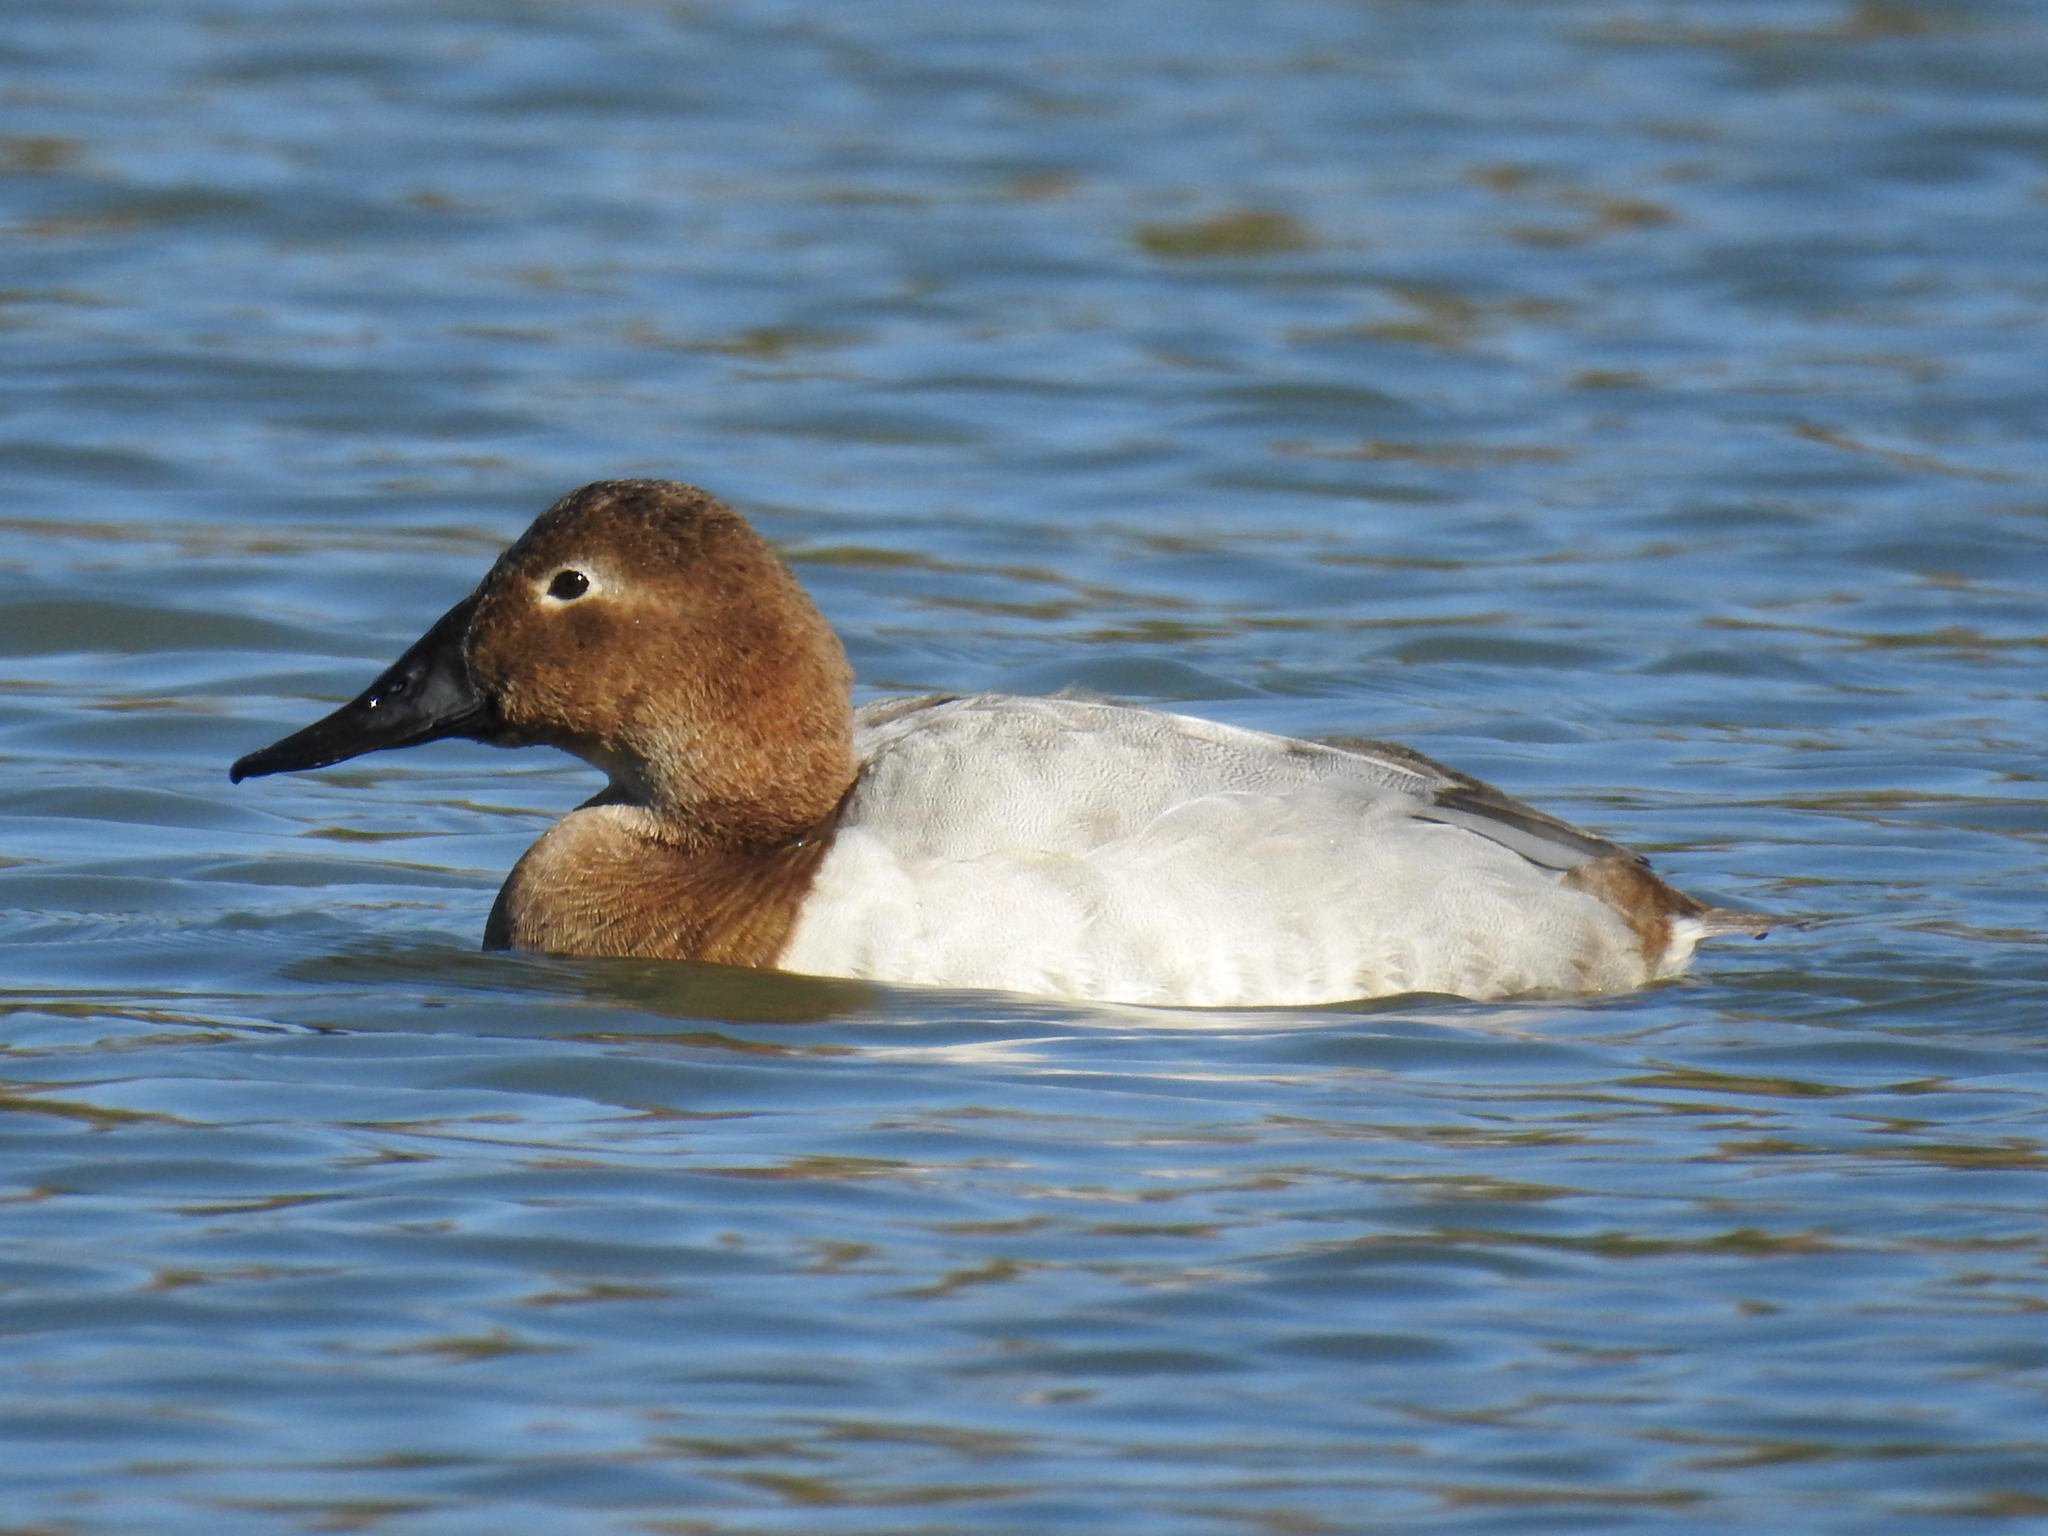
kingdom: Animalia
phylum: Chordata
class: Aves
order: Anseriformes
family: Anatidae
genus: Aythya
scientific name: Aythya valisineria
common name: Canvasback
